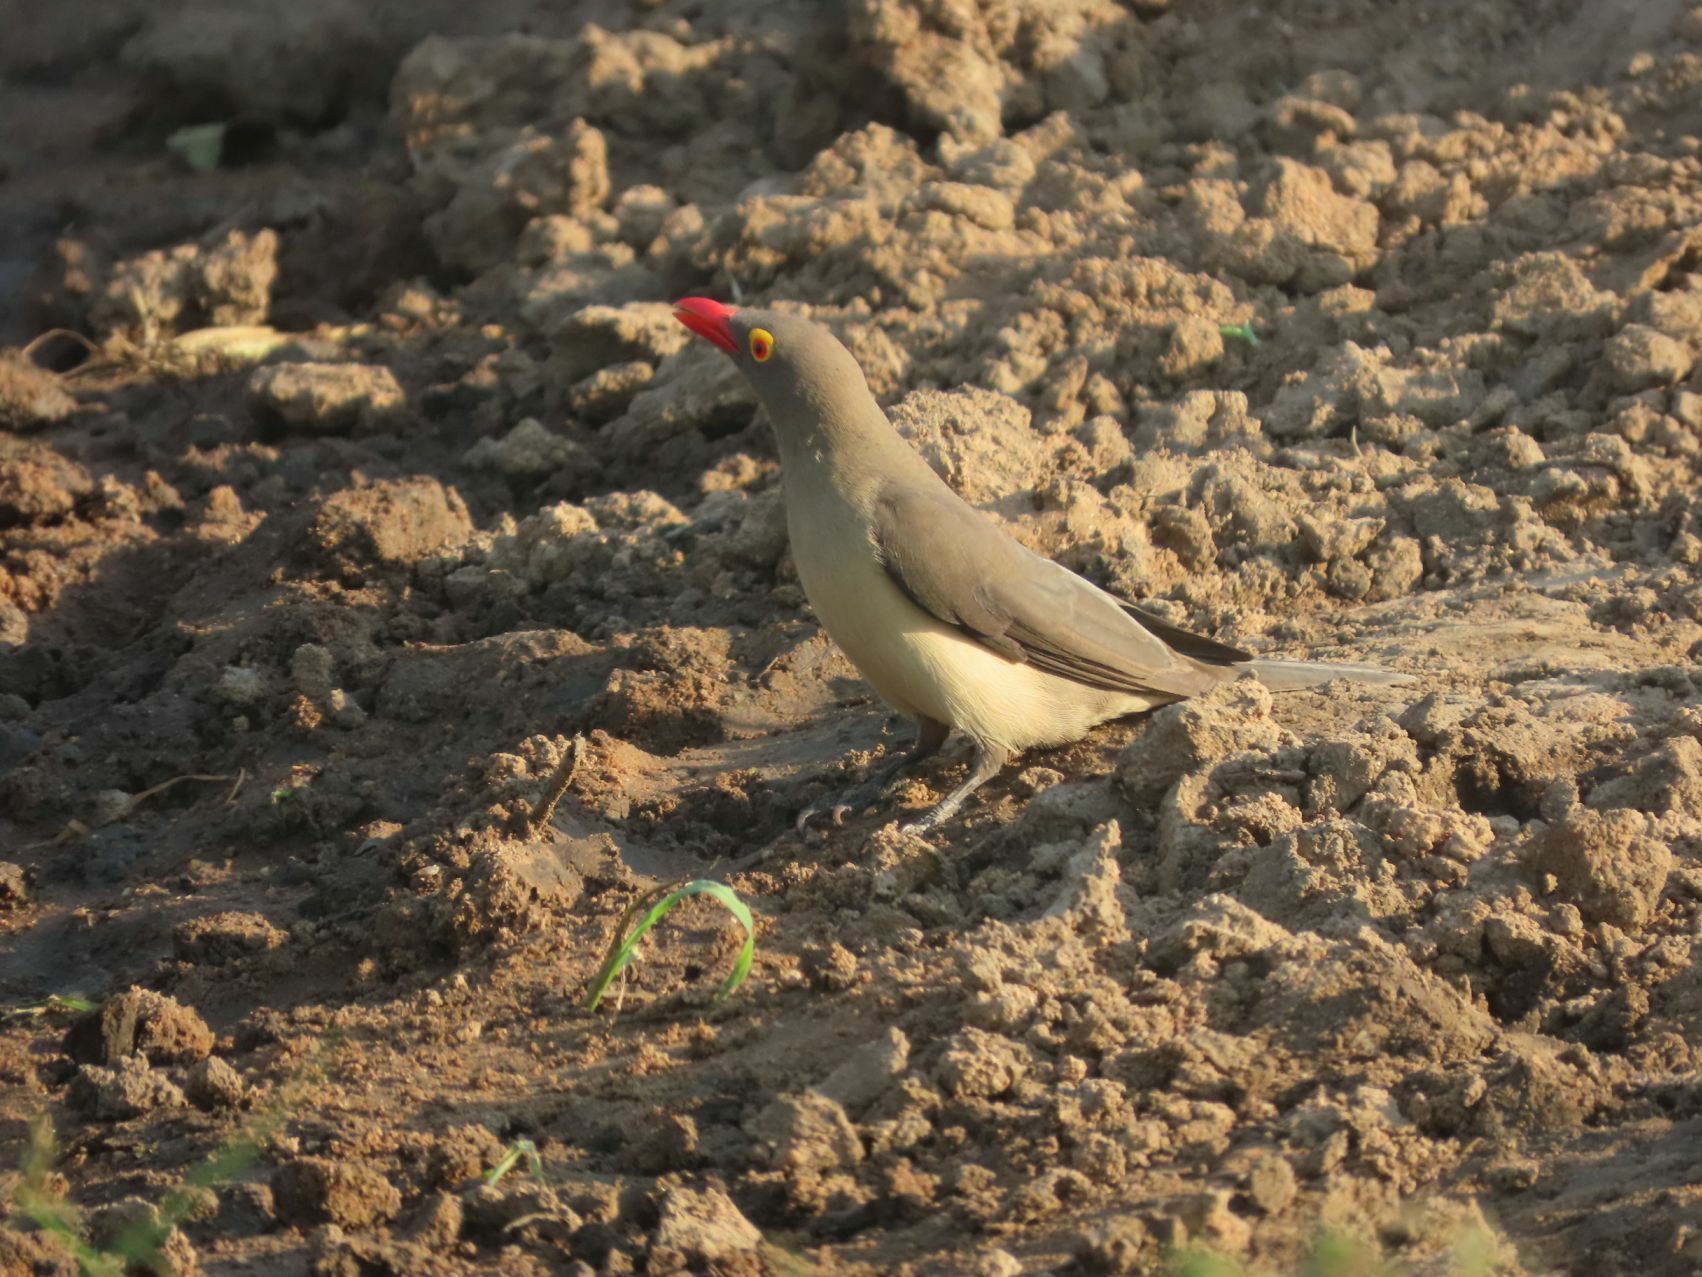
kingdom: Animalia
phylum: Chordata
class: Aves
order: Passeriformes
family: Buphagidae
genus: Buphagus
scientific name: Buphagus erythrorhynchus
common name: Red-billed oxpecker
